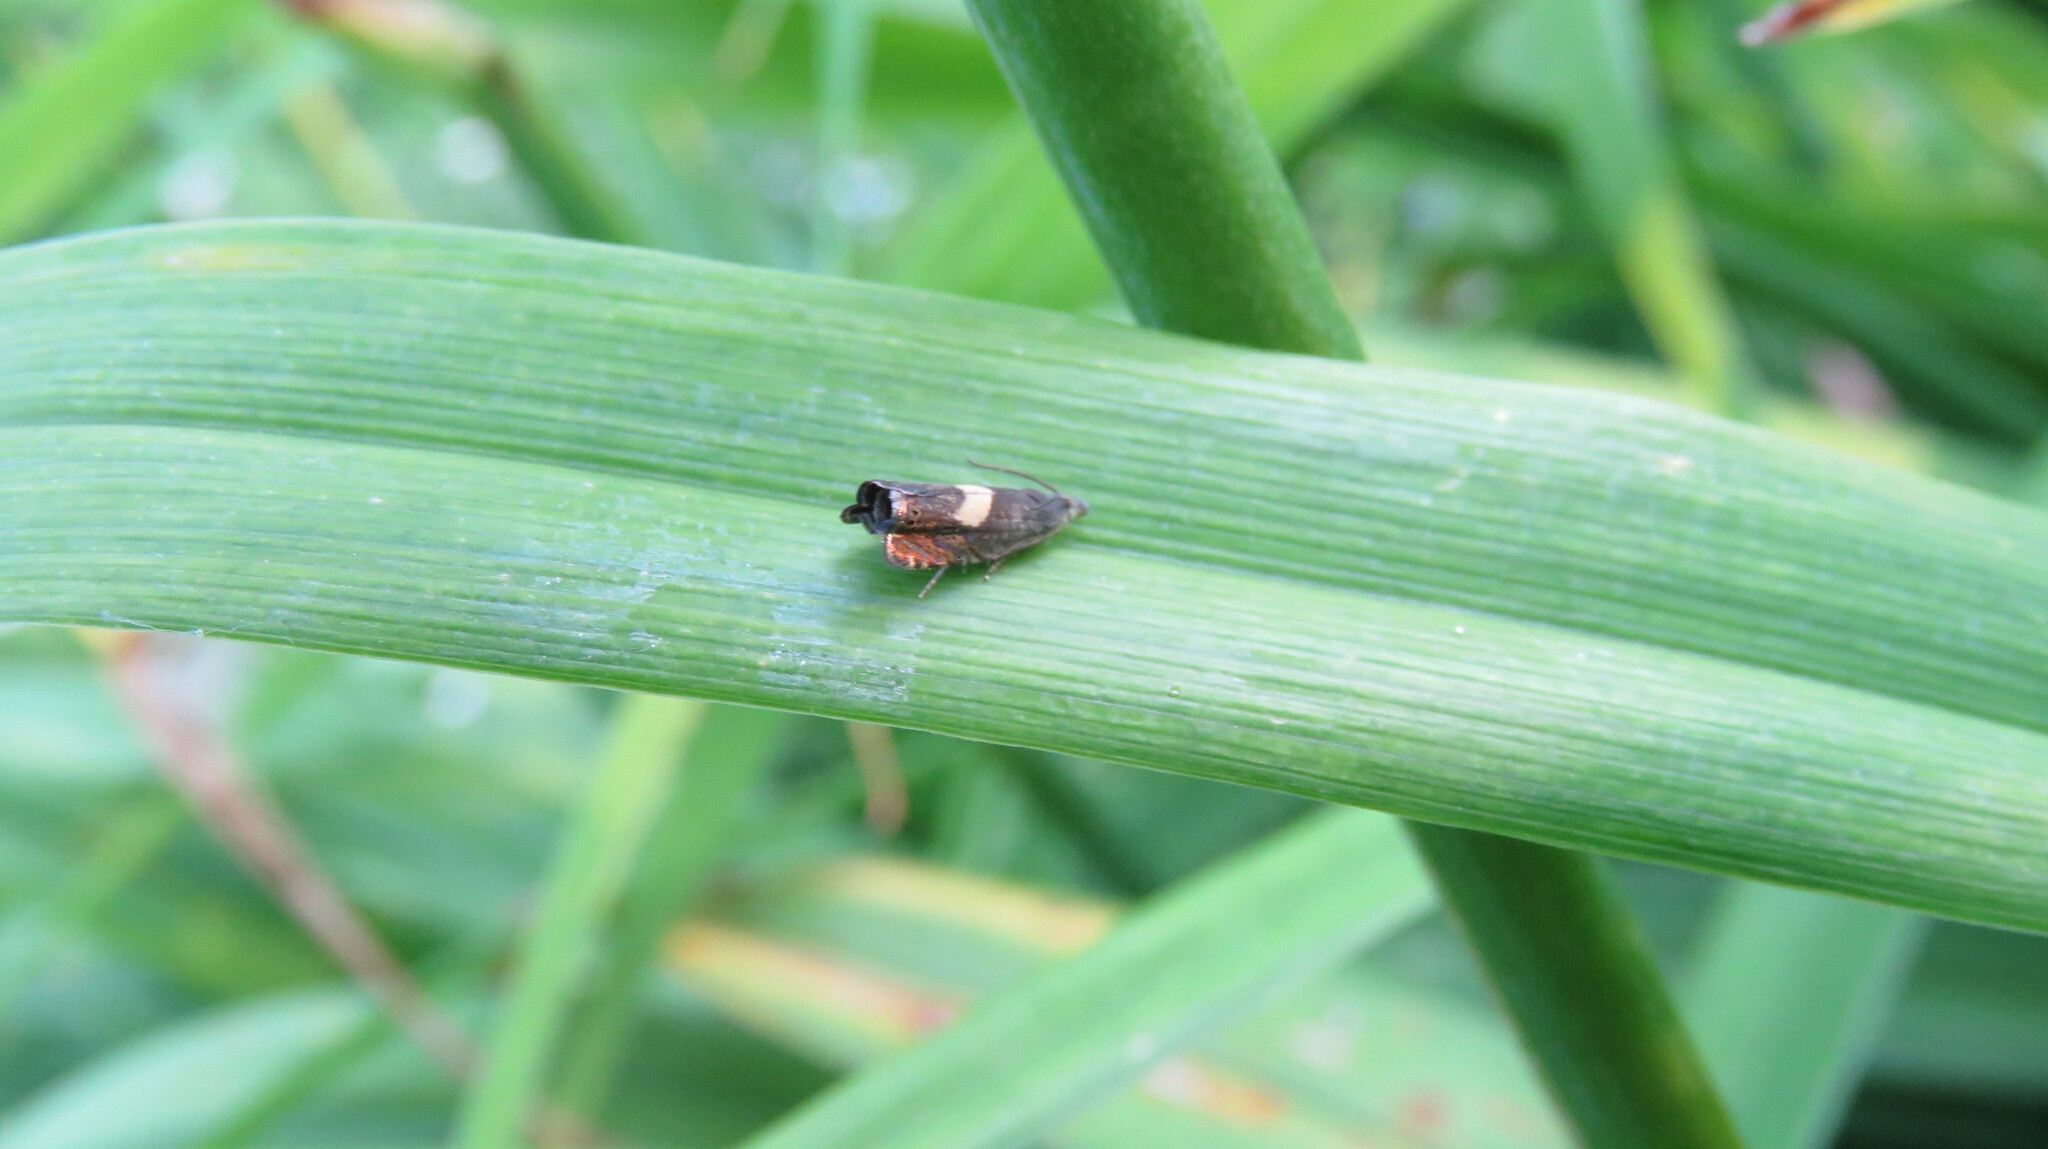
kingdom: Animalia
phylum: Arthropoda
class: Insecta
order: Lepidoptera
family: Tortricidae
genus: Dichrorampha
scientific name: Dichrorampha petiverella
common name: Common drill
